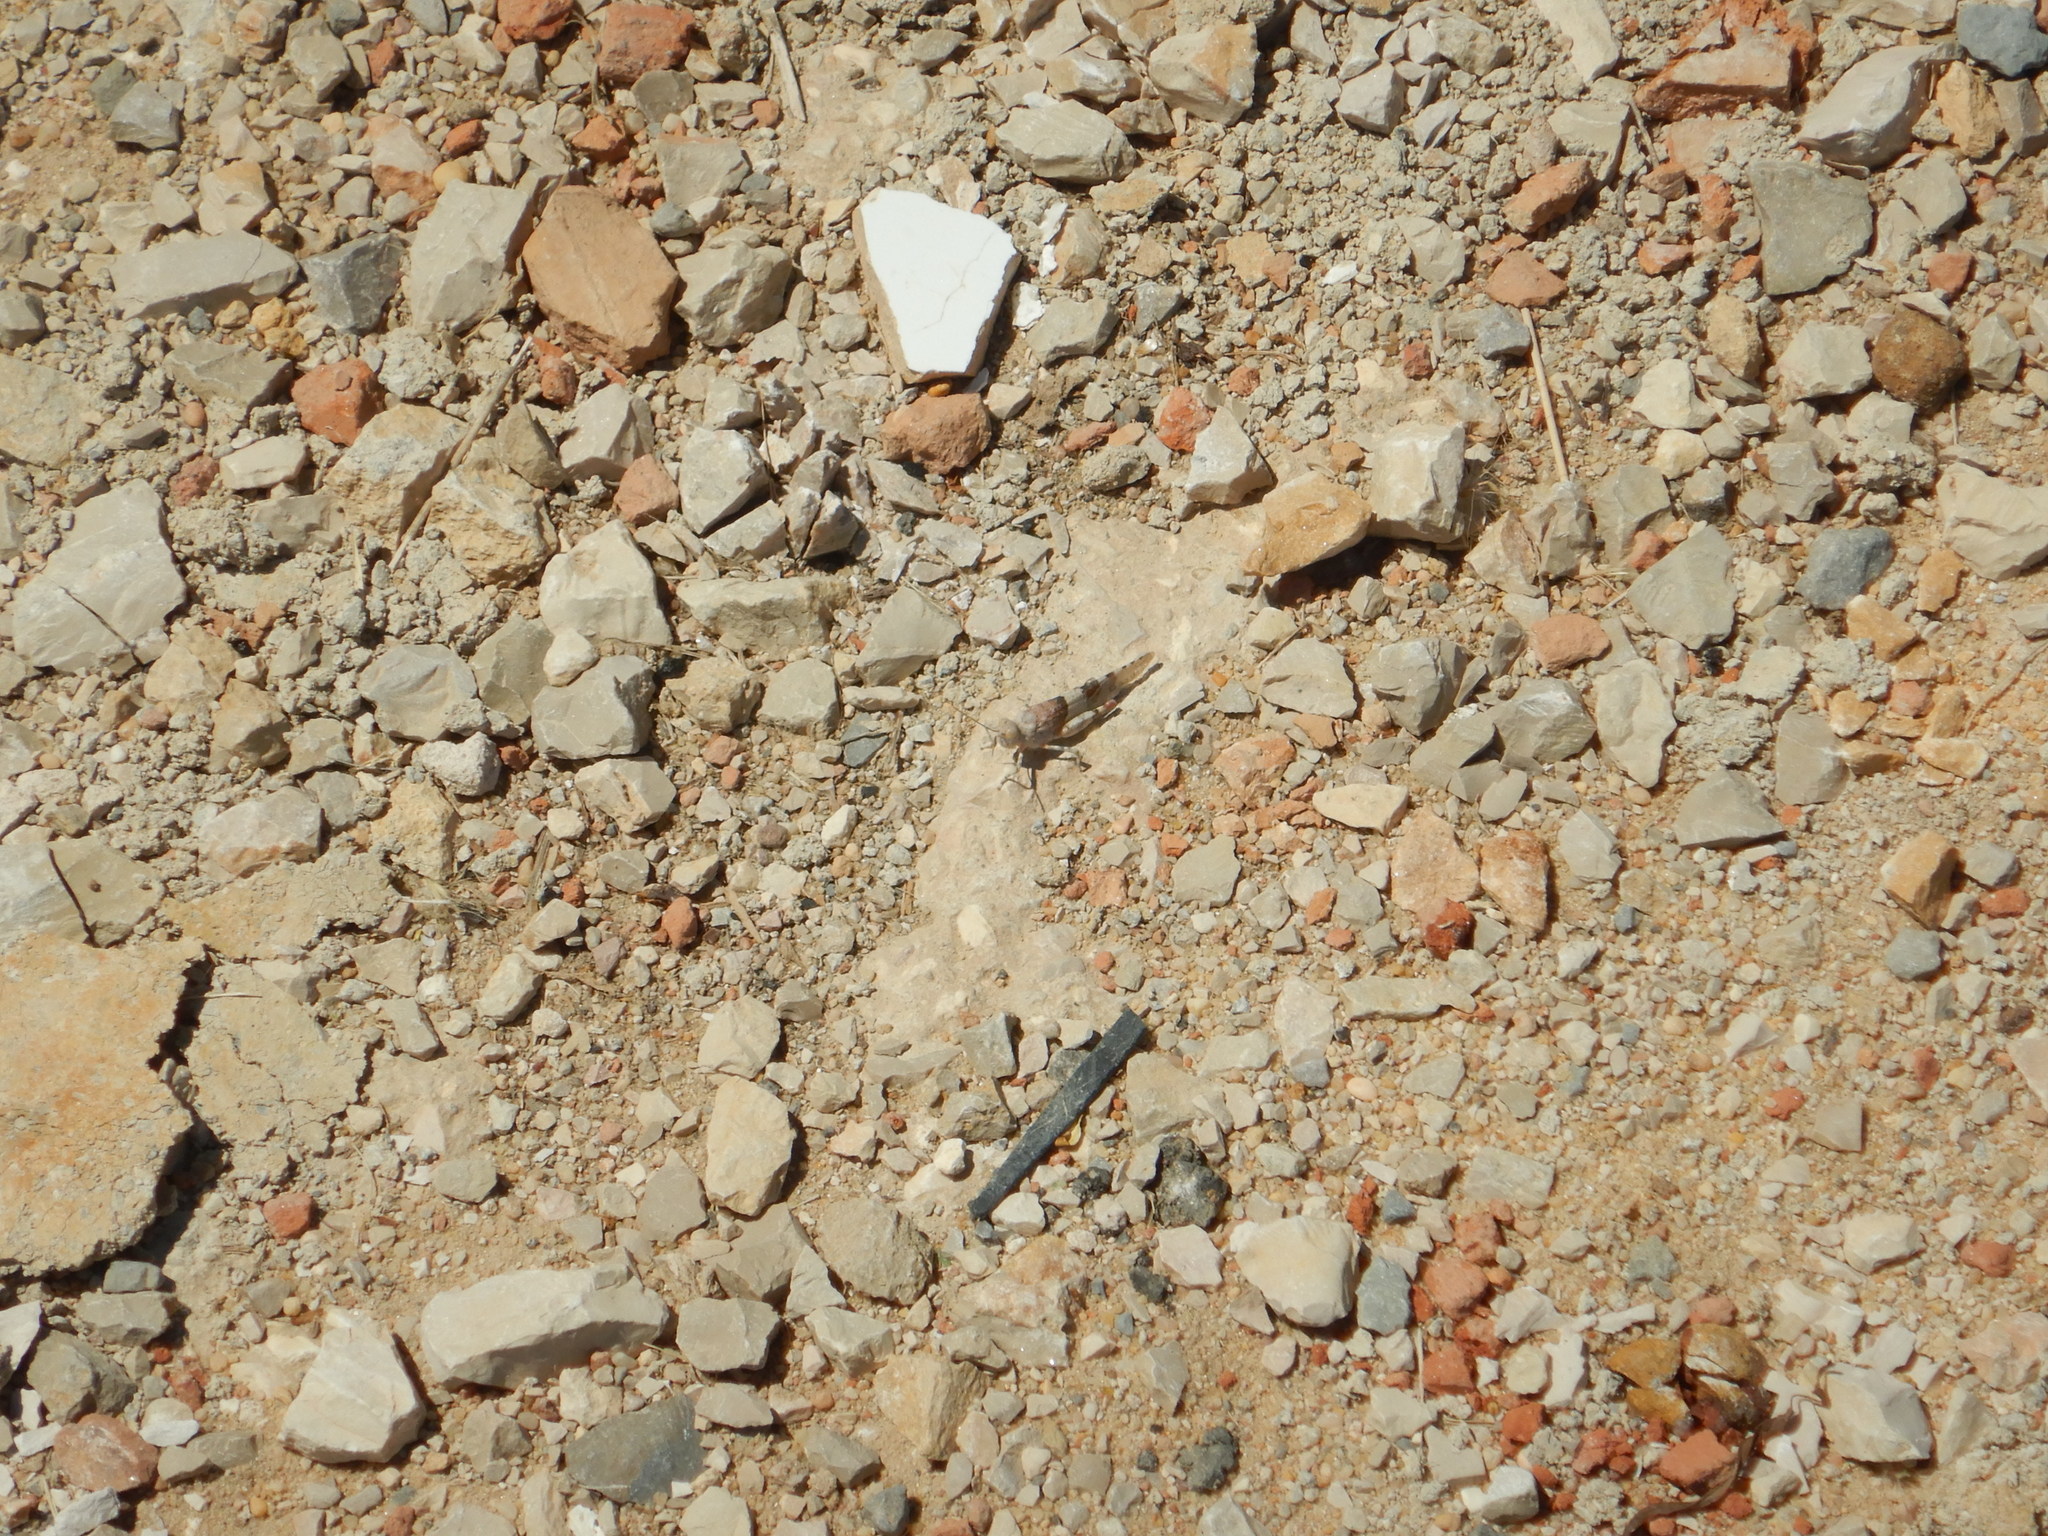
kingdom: Animalia
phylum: Arthropoda
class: Insecta
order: Orthoptera
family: Acrididae
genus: Sphingonotus
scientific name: Sphingonotus azurescens
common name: Azure sand grasshopper
